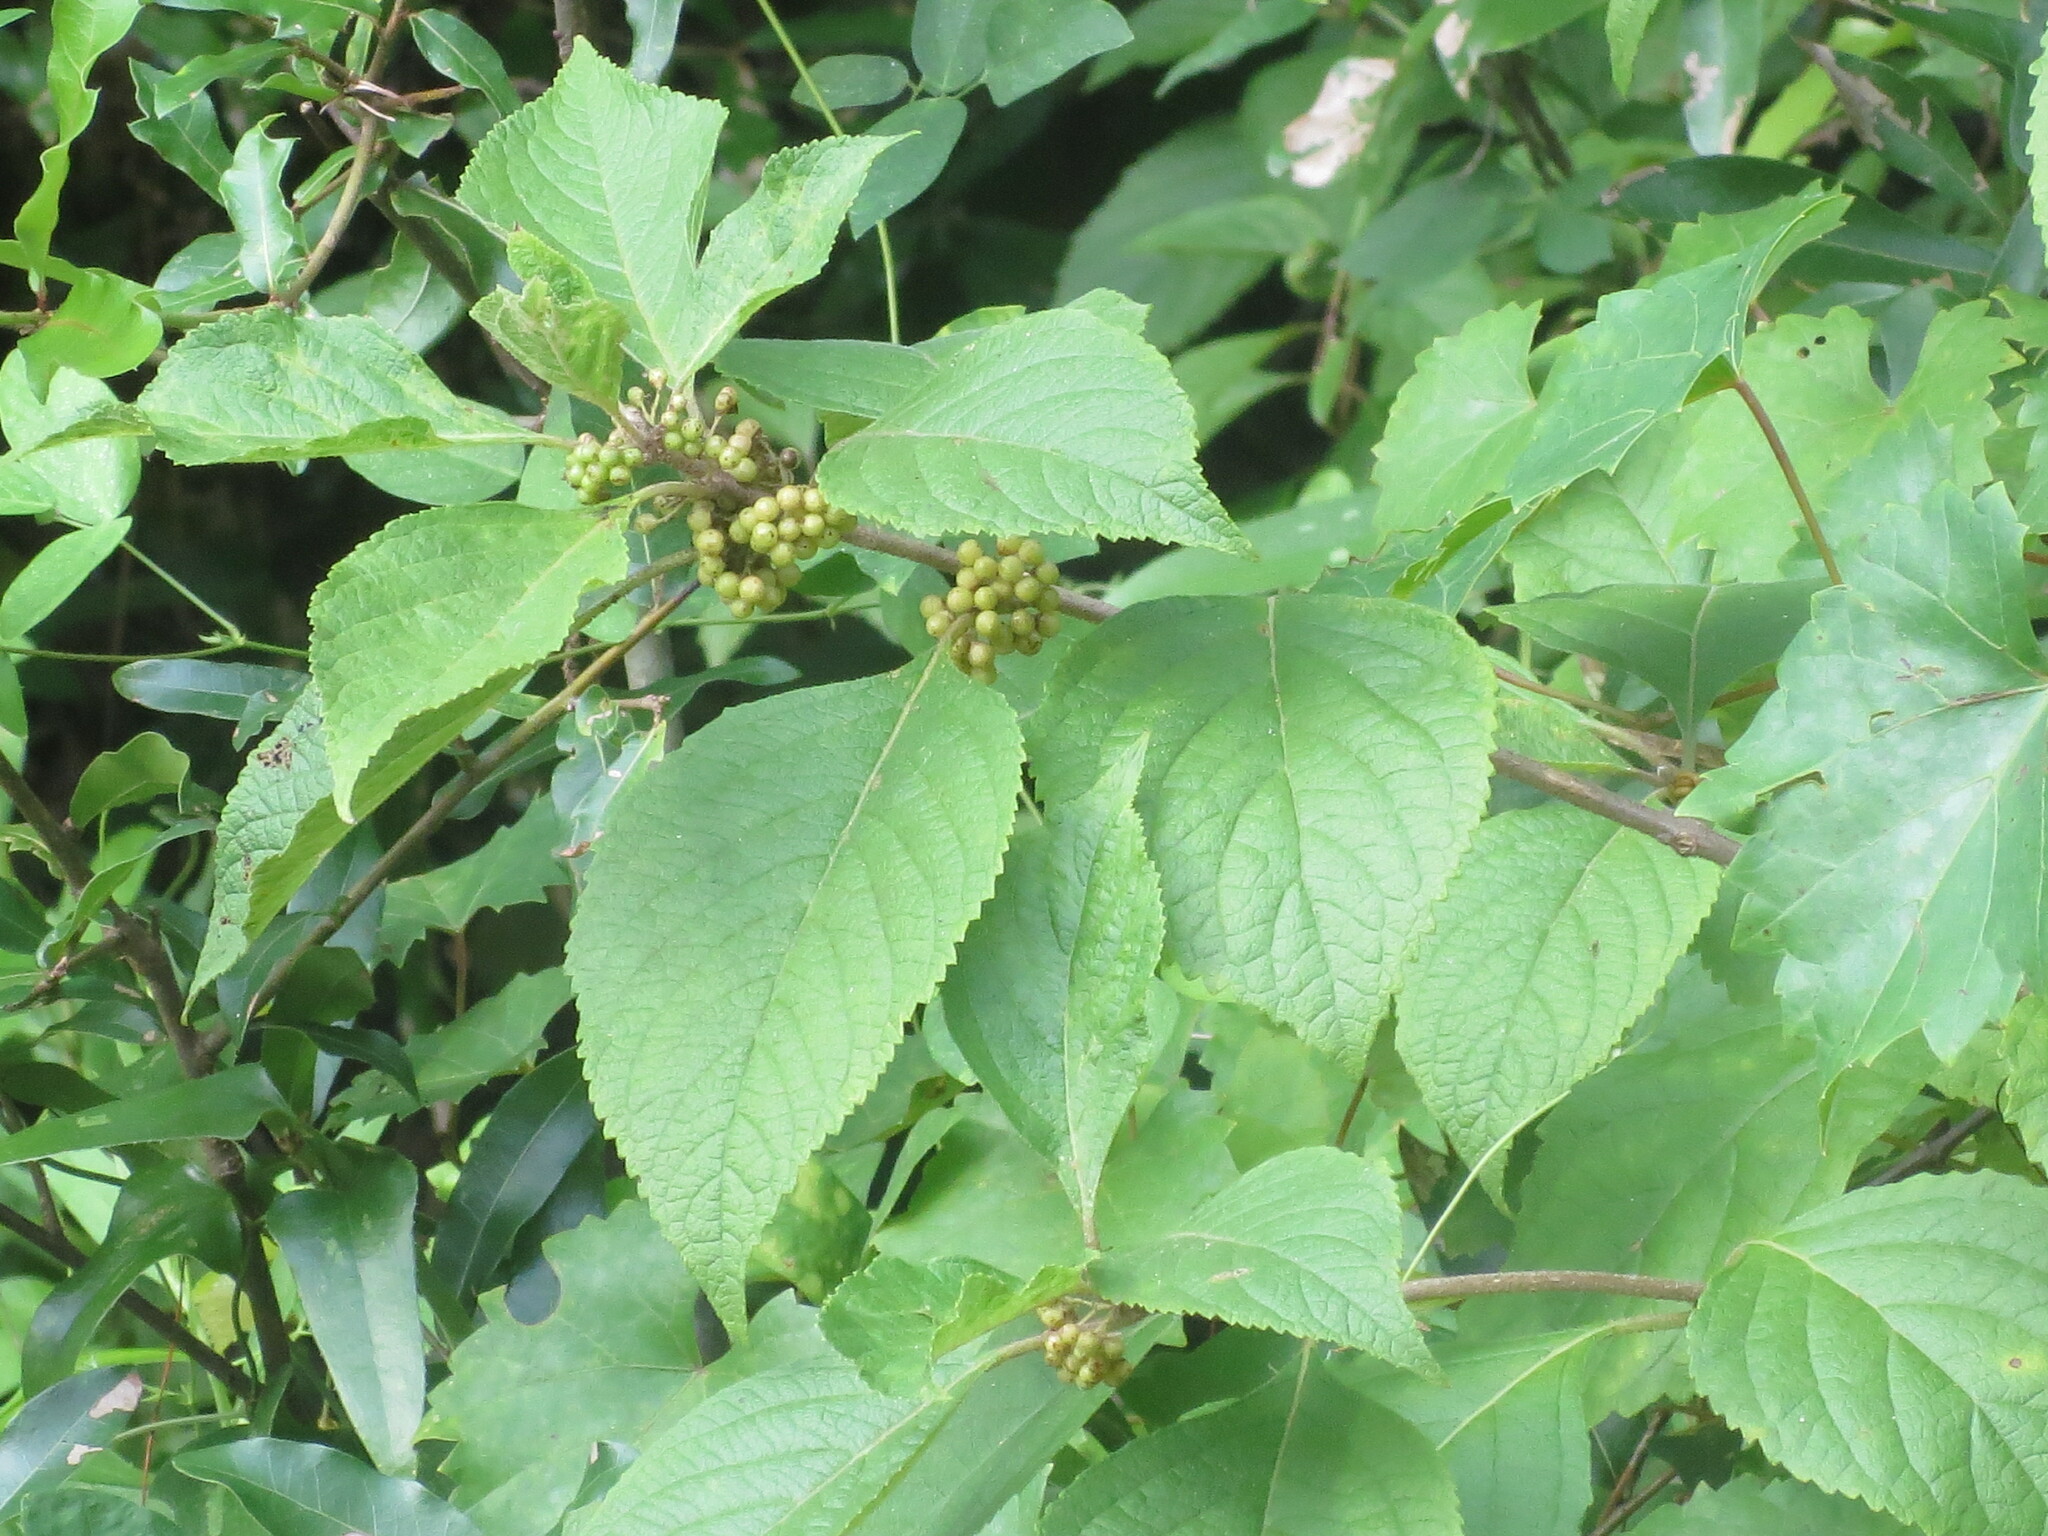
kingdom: Plantae
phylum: Tracheophyta
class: Magnoliopsida
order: Lamiales
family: Lamiaceae
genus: Callicarpa
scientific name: Callicarpa americana
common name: American beautyberry
